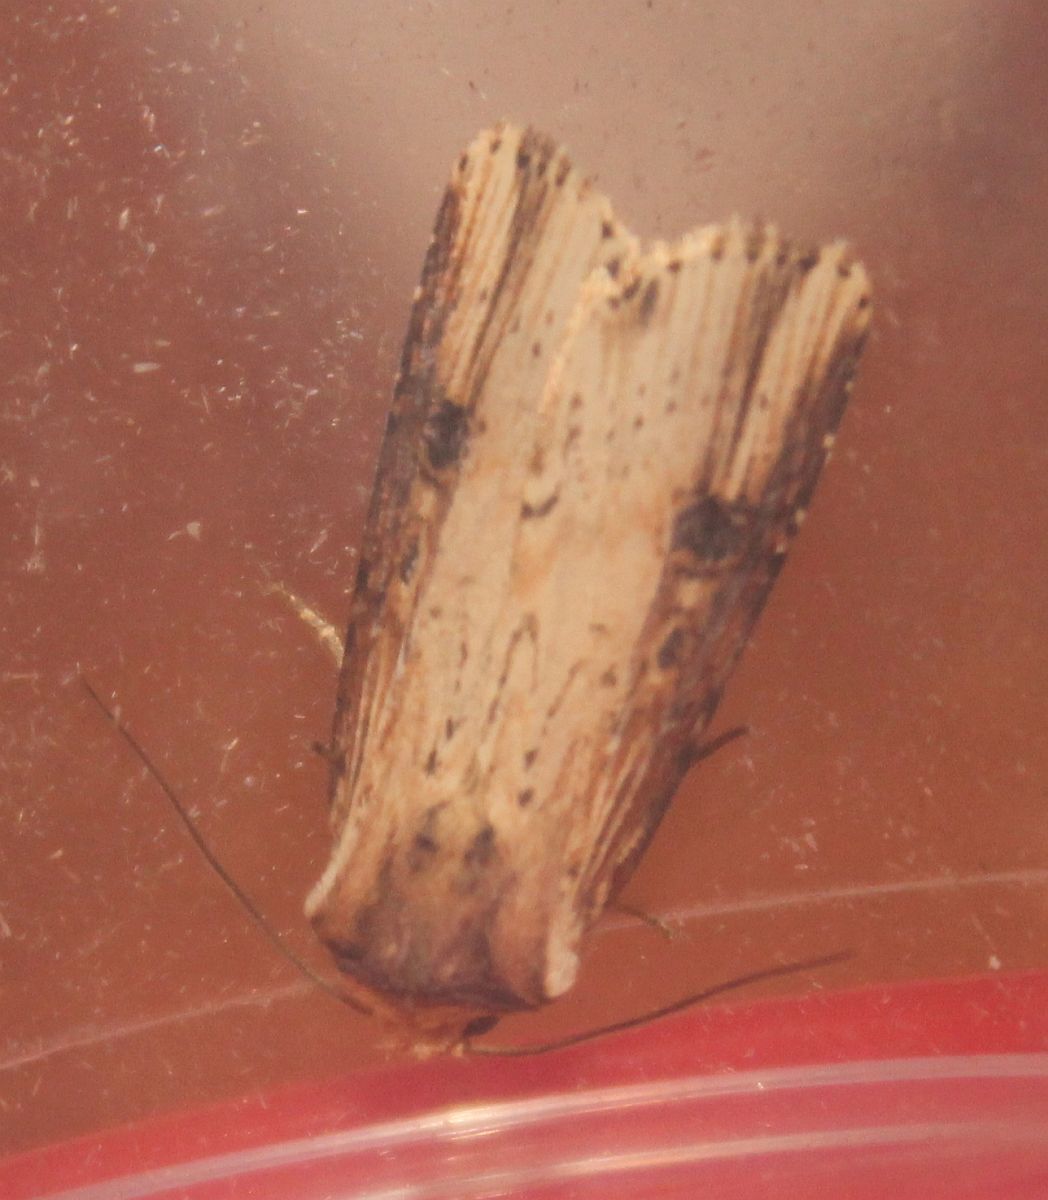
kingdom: Animalia
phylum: Arthropoda
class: Insecta
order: Lepidoptera
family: Noctuidae
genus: Axylia
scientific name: Axylia putris
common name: Flame
